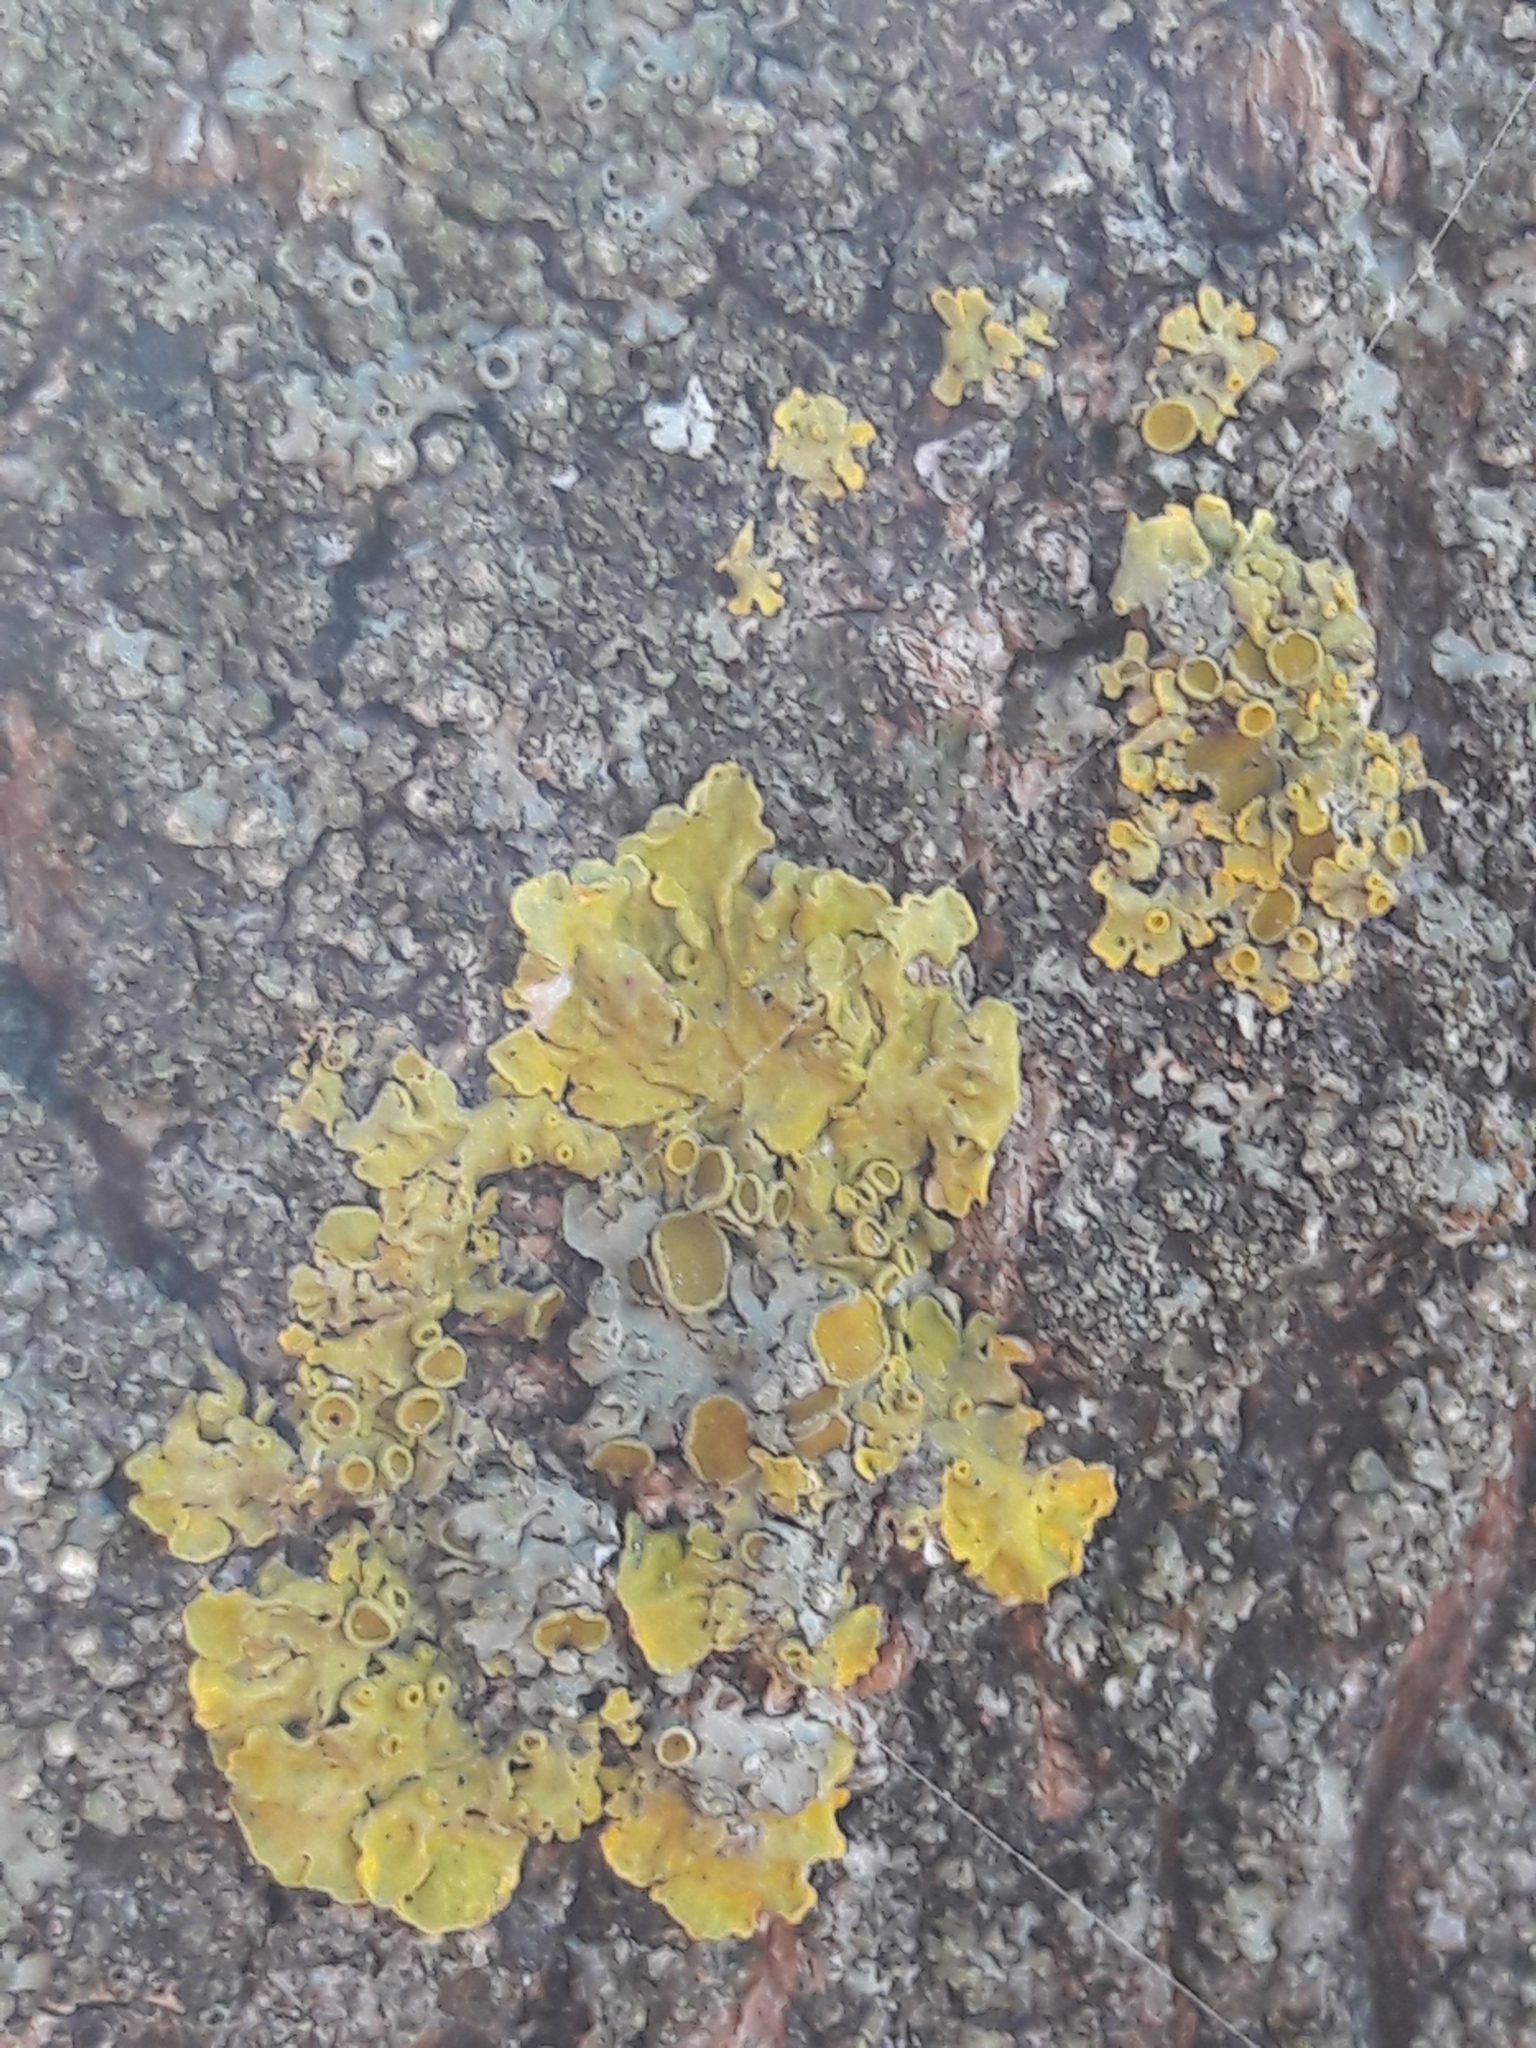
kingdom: Fungi
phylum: Ascomycota
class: Lecanoromycetes
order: Teloschistales
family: Teloschistaceae
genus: Xanthoria
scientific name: Xanthoria parietina
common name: Common orange lichen
